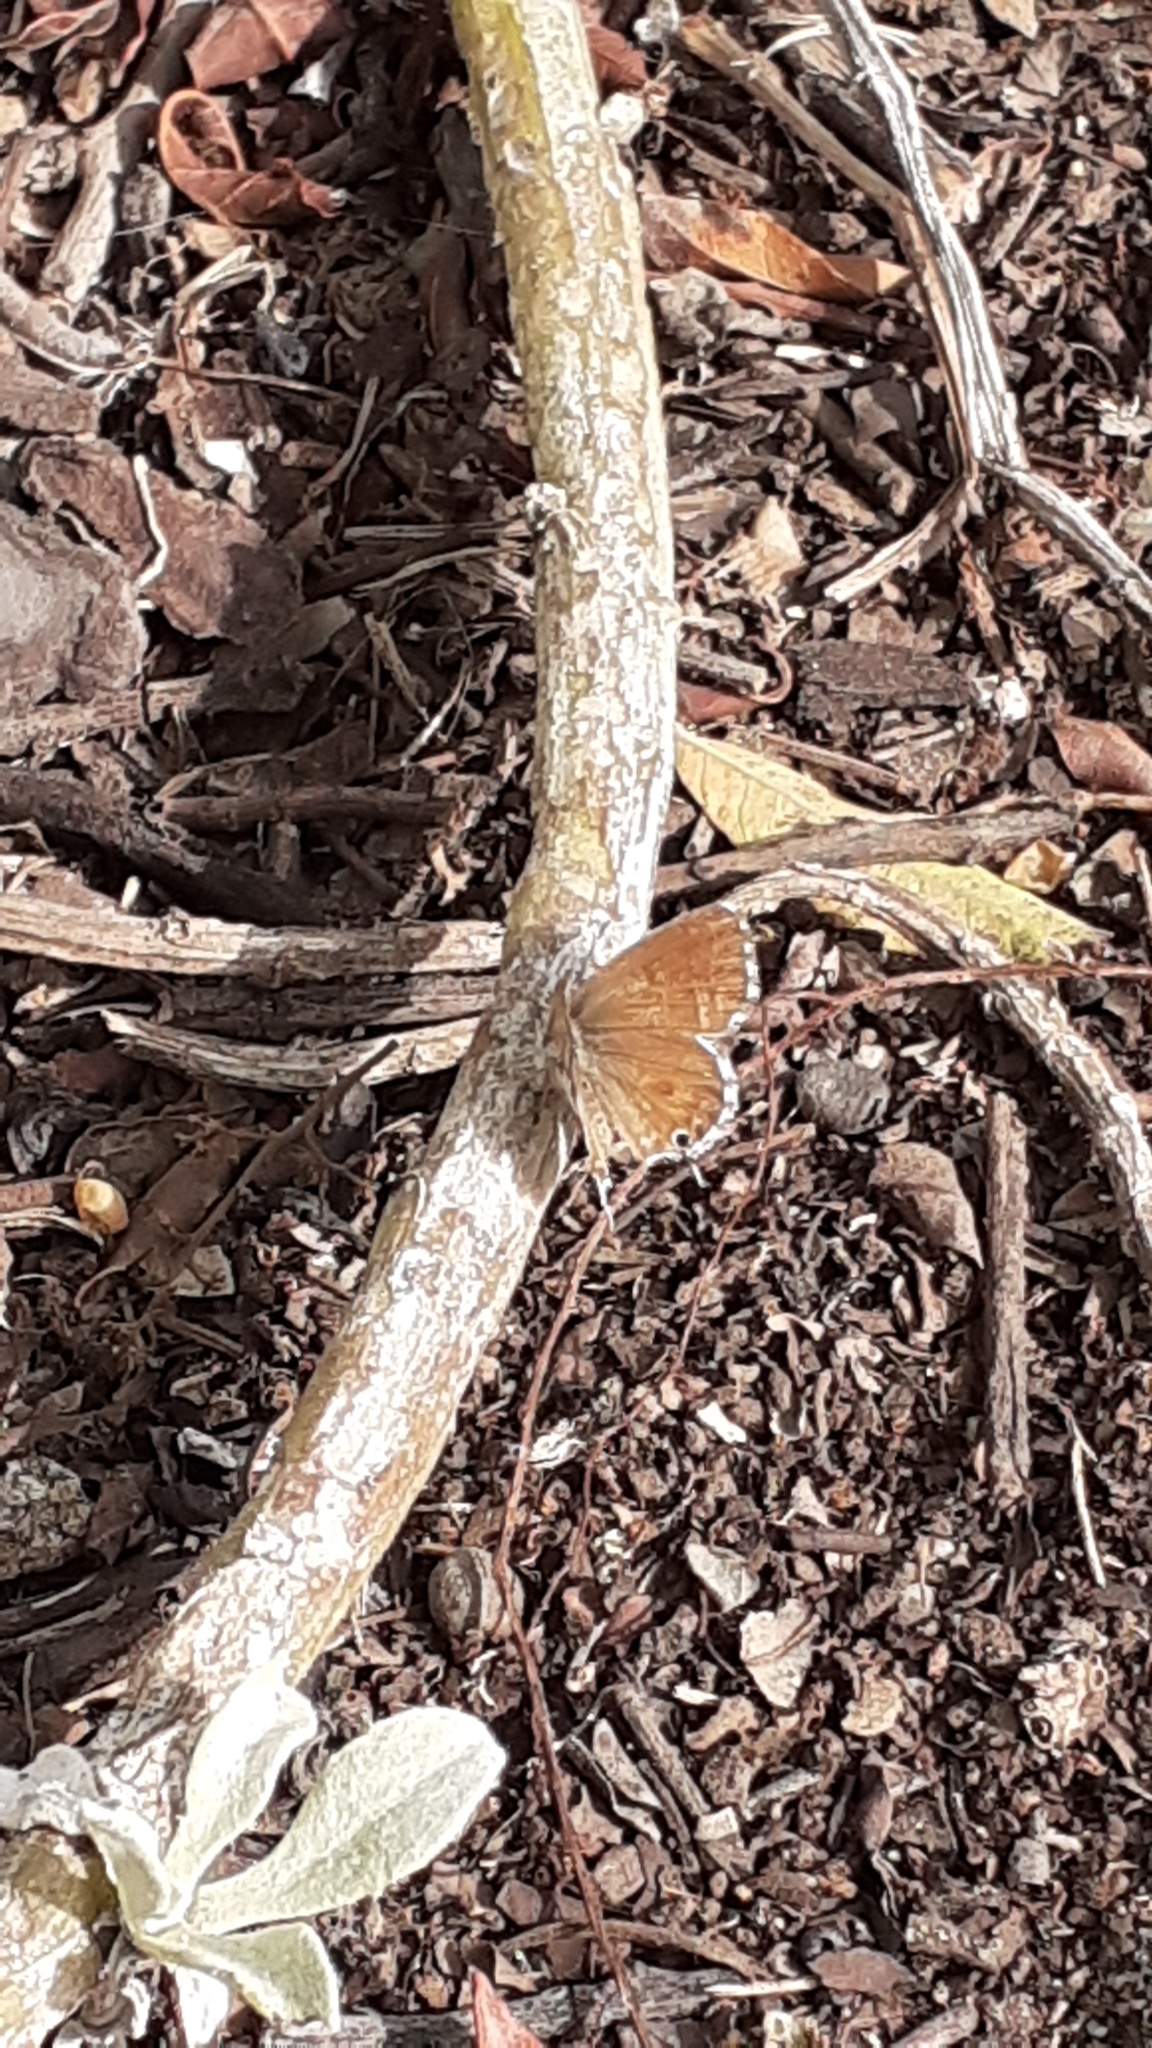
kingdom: Animalia
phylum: Arthropoda
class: Insecta
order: Lepidoptera
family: Lycaenidae
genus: Cacyreus
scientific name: Cacyreus marshalli
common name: Geranium bronze
